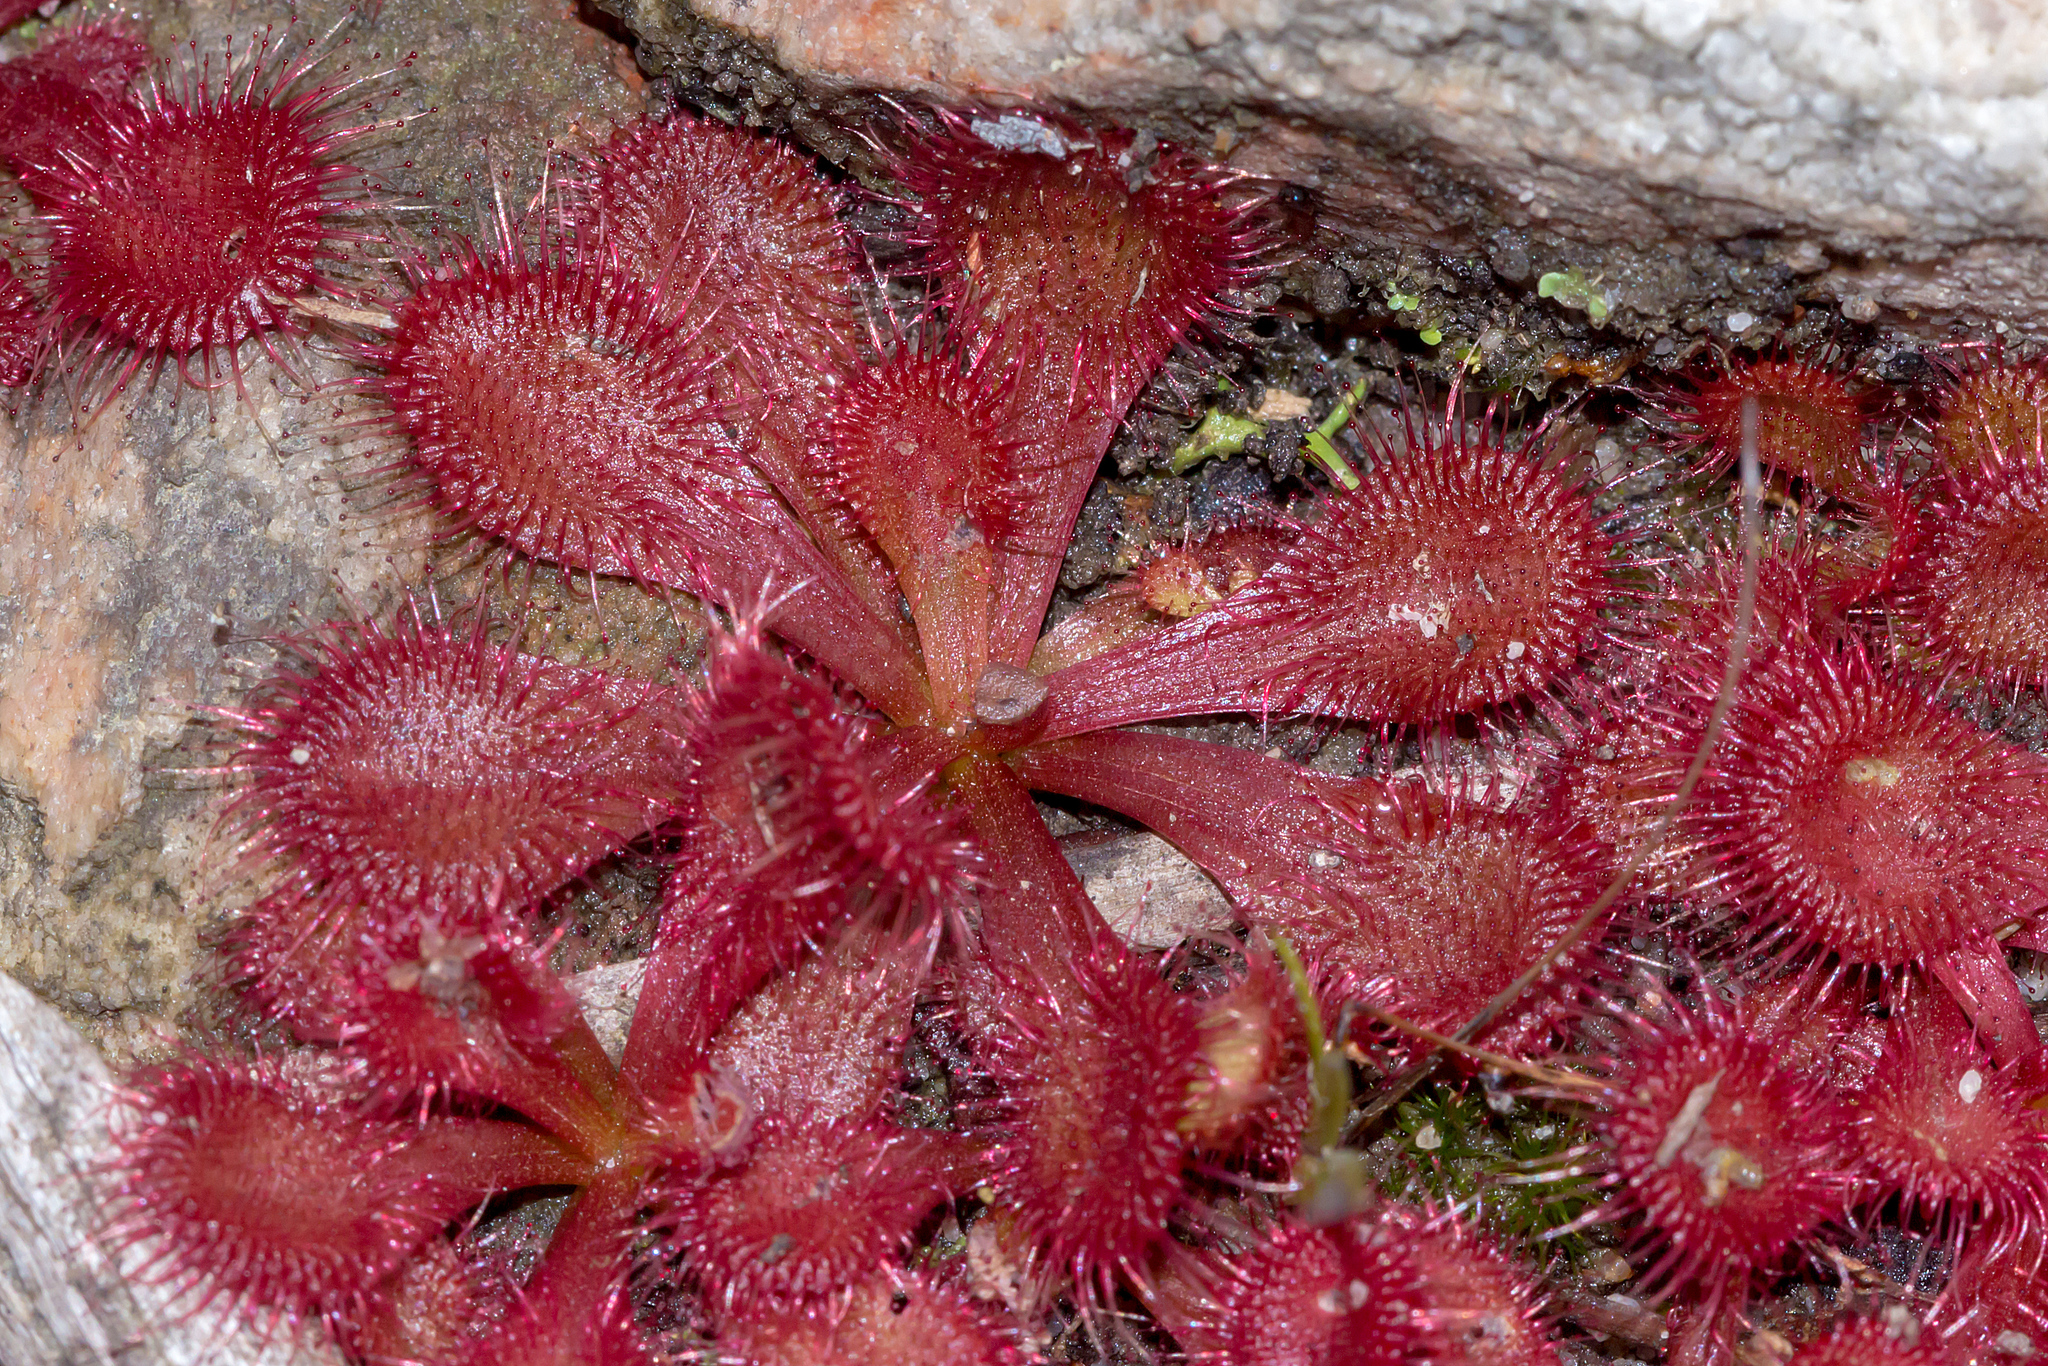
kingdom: Plantae
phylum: Tracheophyta
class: Magnoliopsida
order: Caryophyllales
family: Droseraceae
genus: Drosera
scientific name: Drosera aberrans
